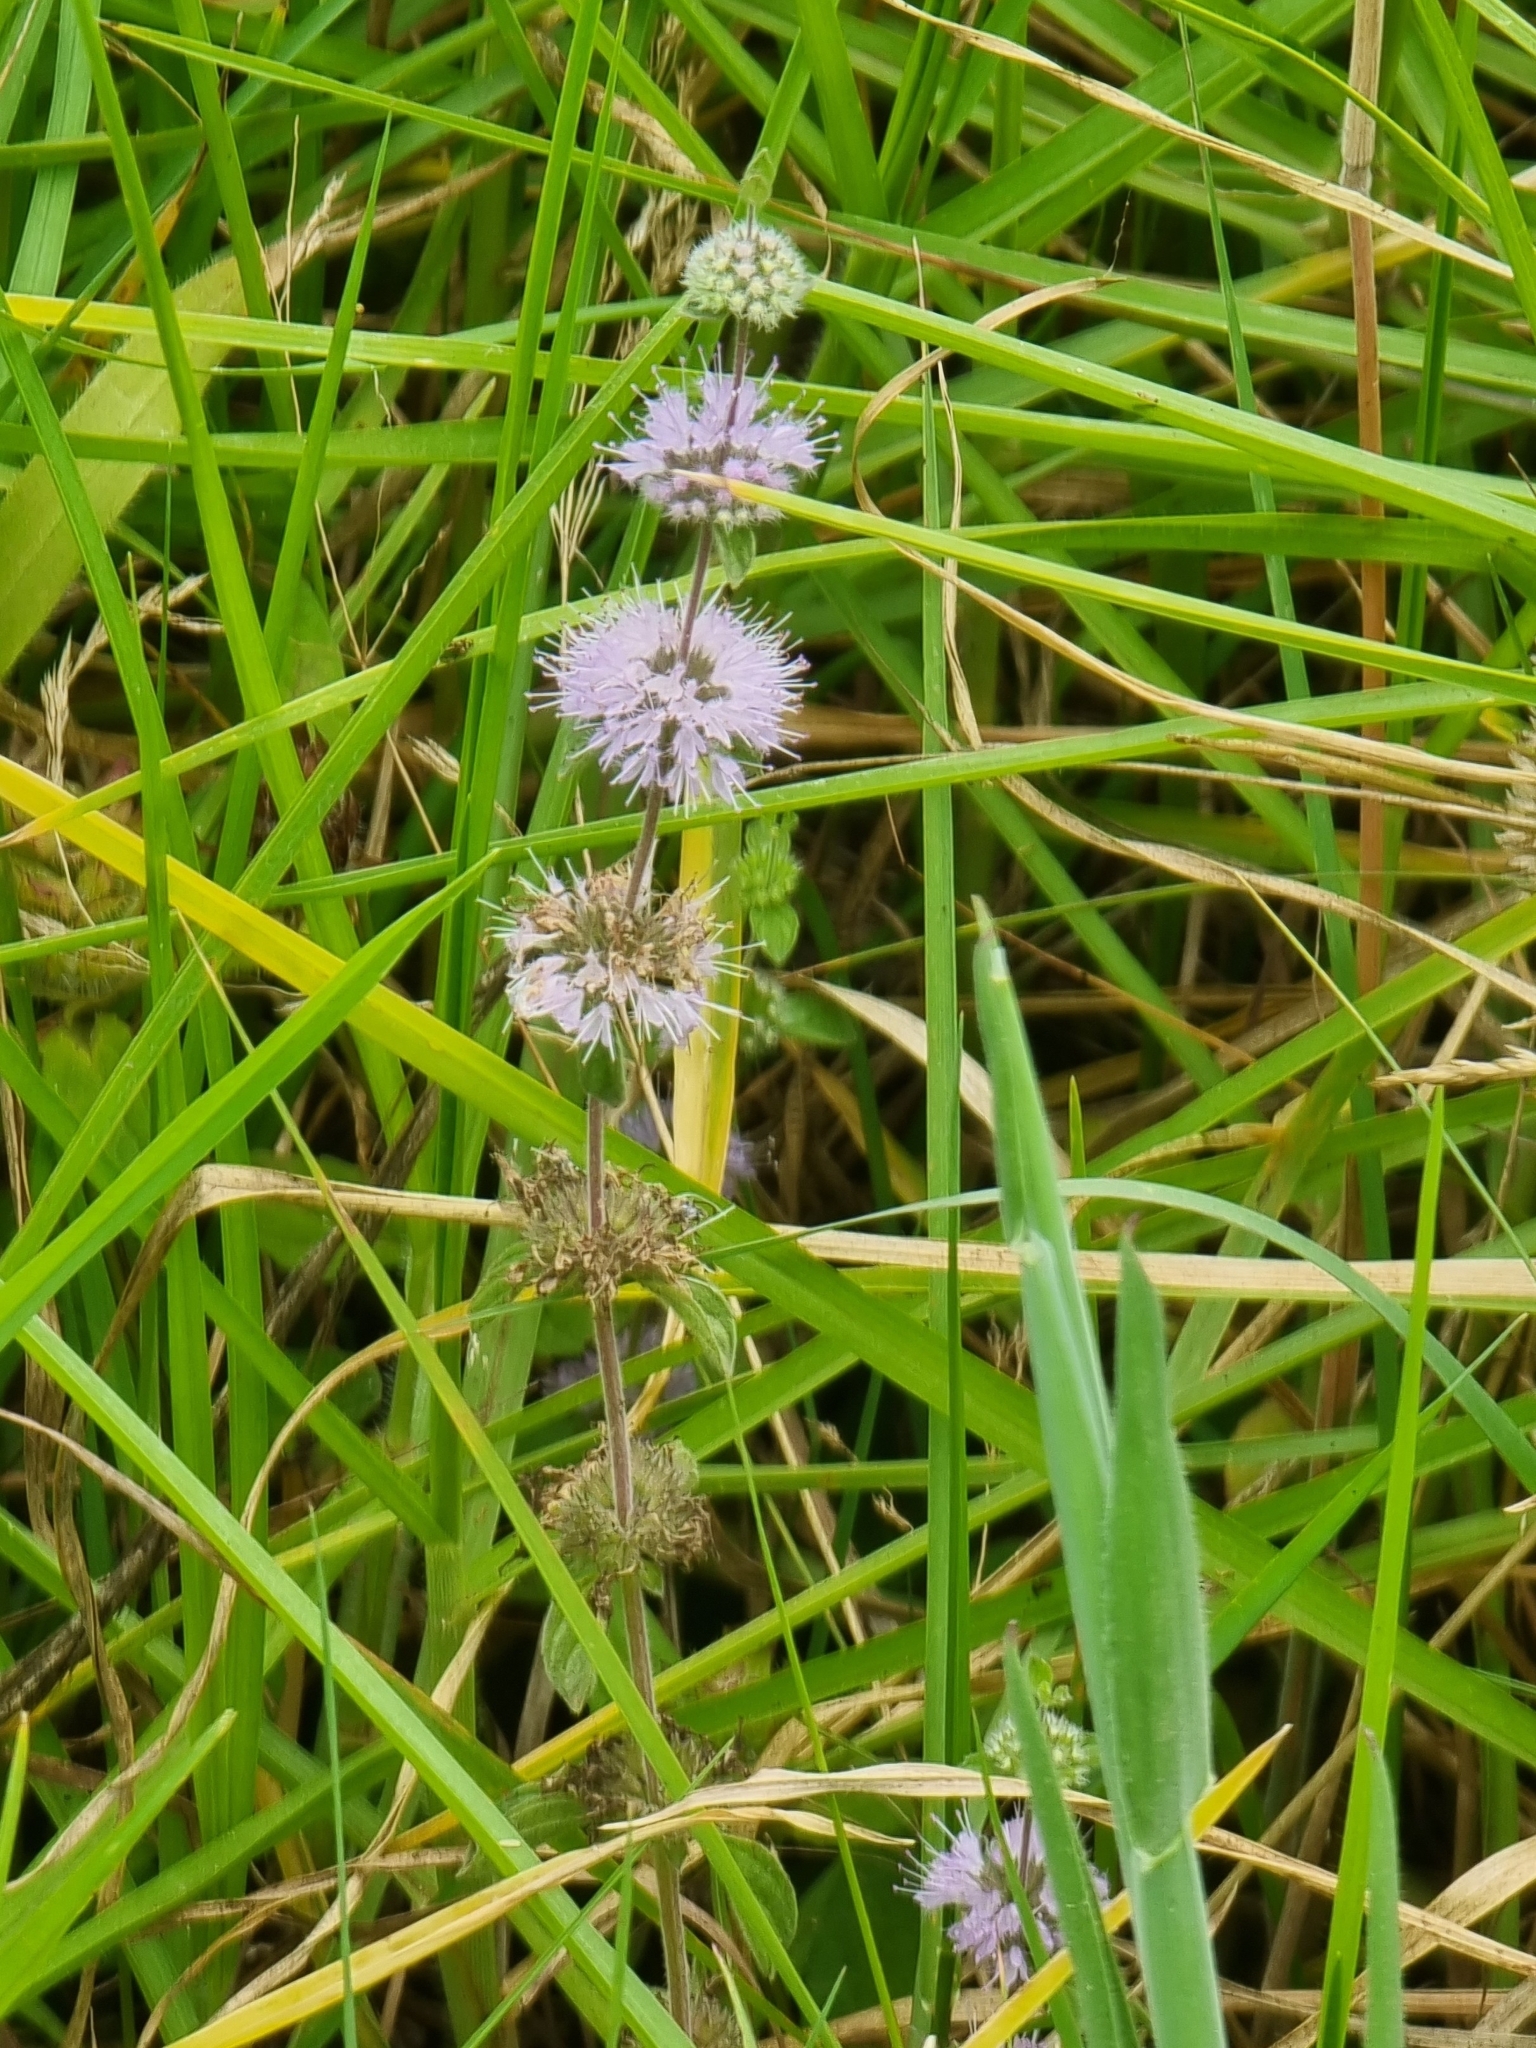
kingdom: Plantae
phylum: Tracheophyta
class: Magnoliopsida
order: Lamiales
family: Lamiaceae
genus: Mentha
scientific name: Mentha pulegium
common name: Pennyroyal
